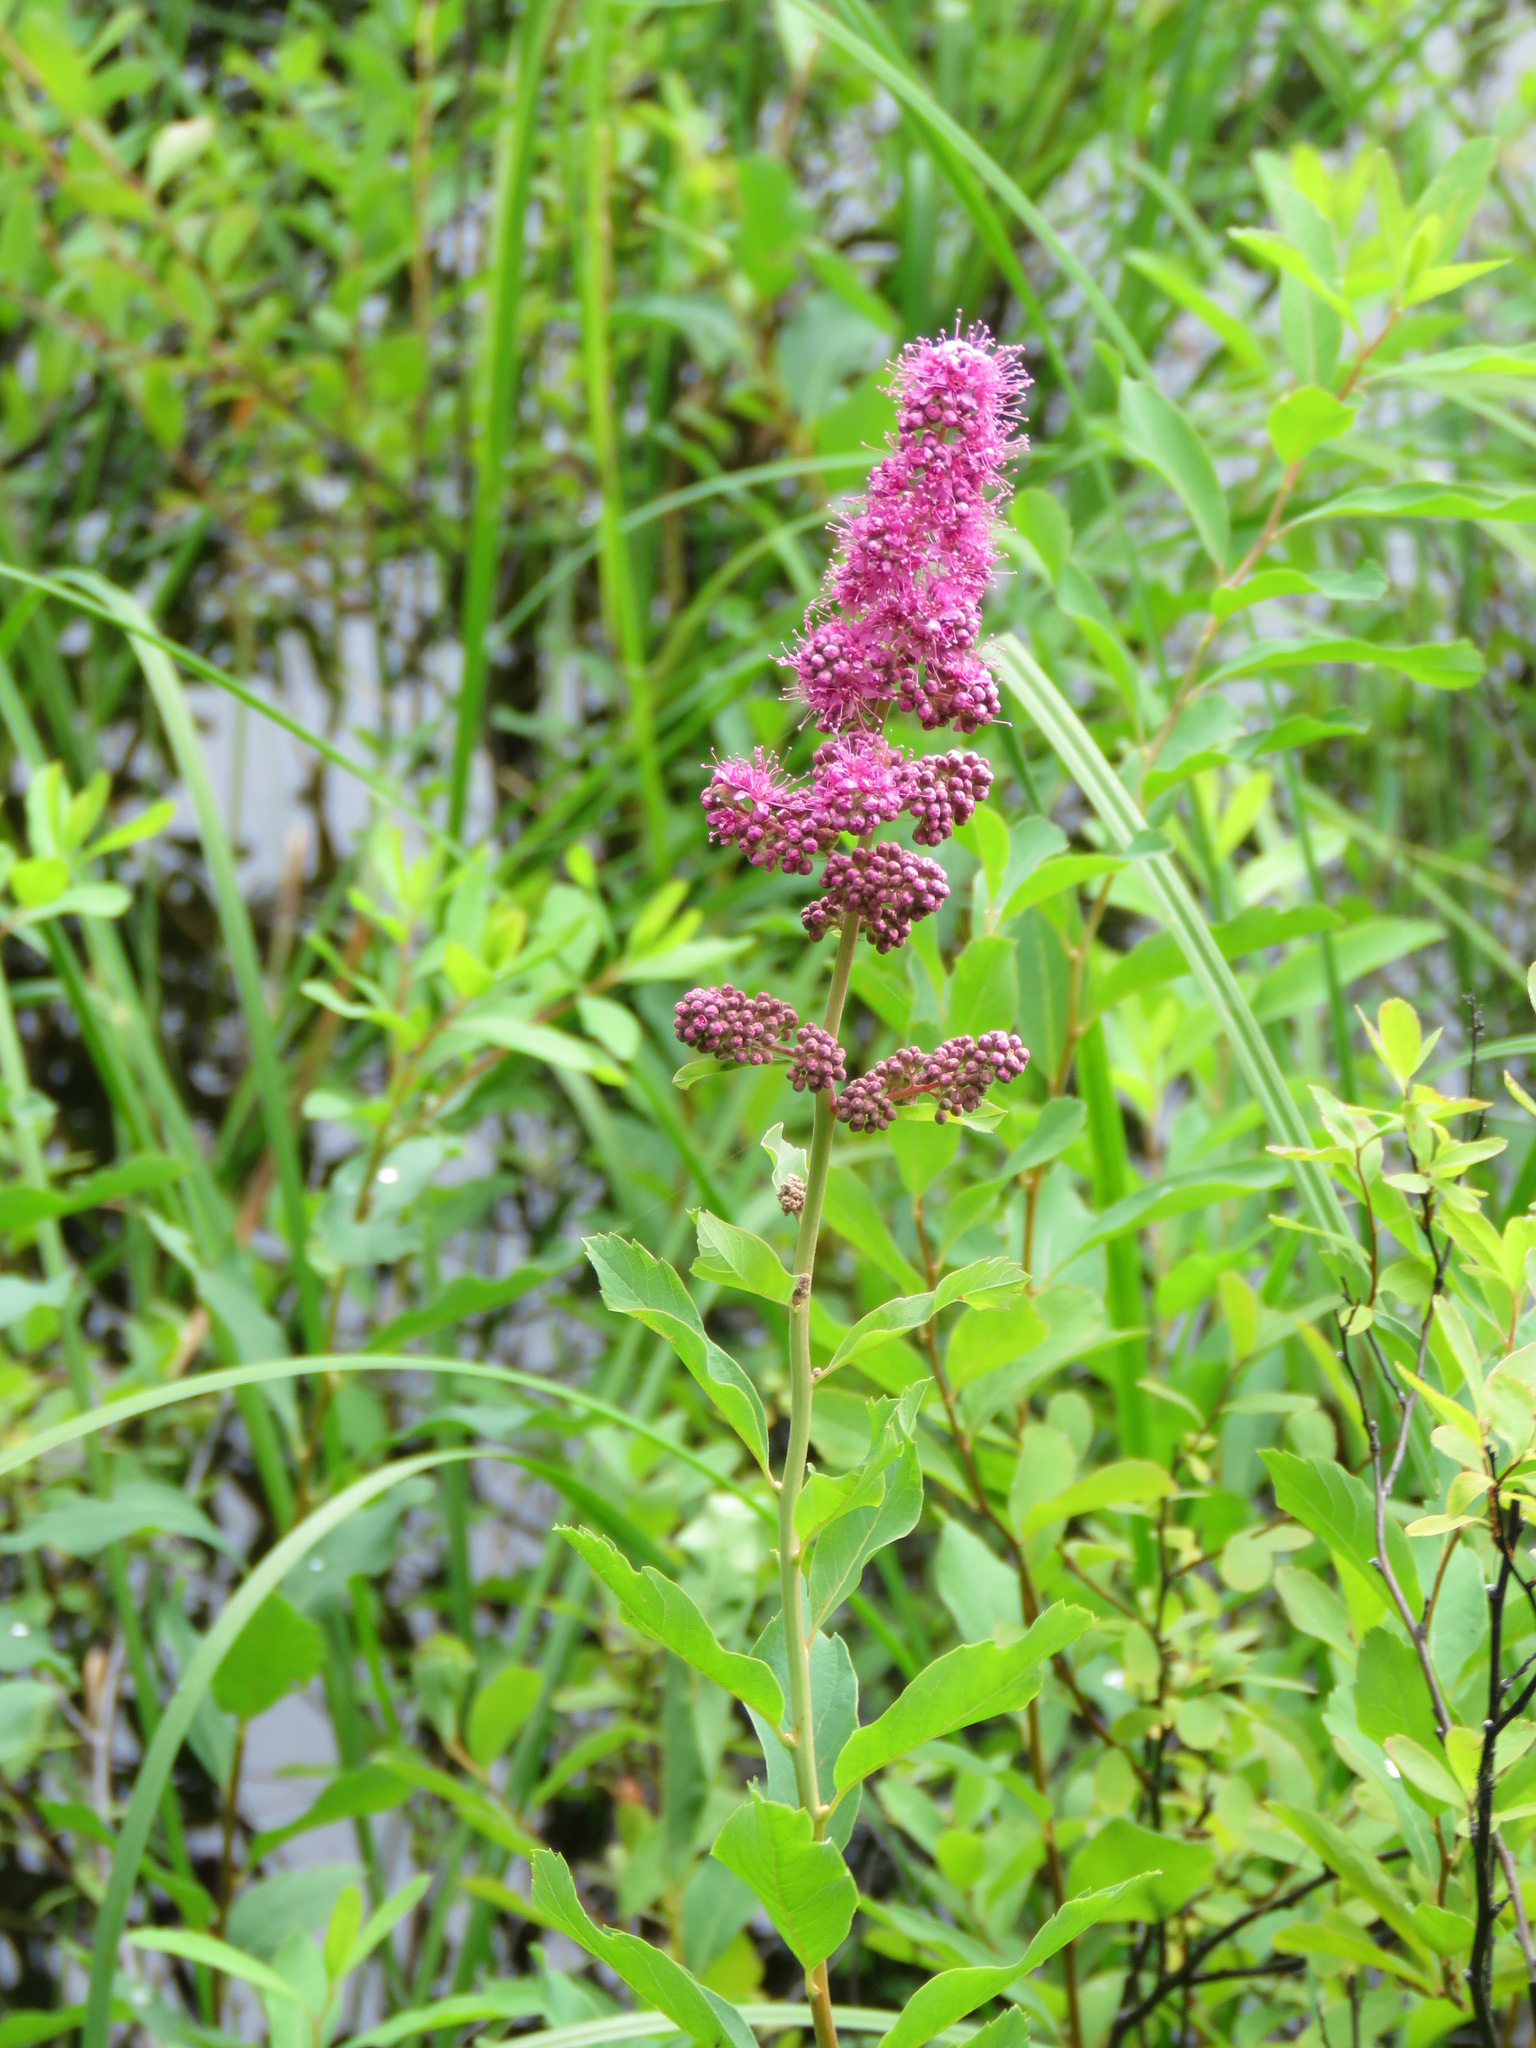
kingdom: Plantae
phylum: Tracheophyta
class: Magnoliopsida
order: Rosales
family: Rosaceae
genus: Spiraea
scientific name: Spiraea douglasii
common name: Steeplebush
